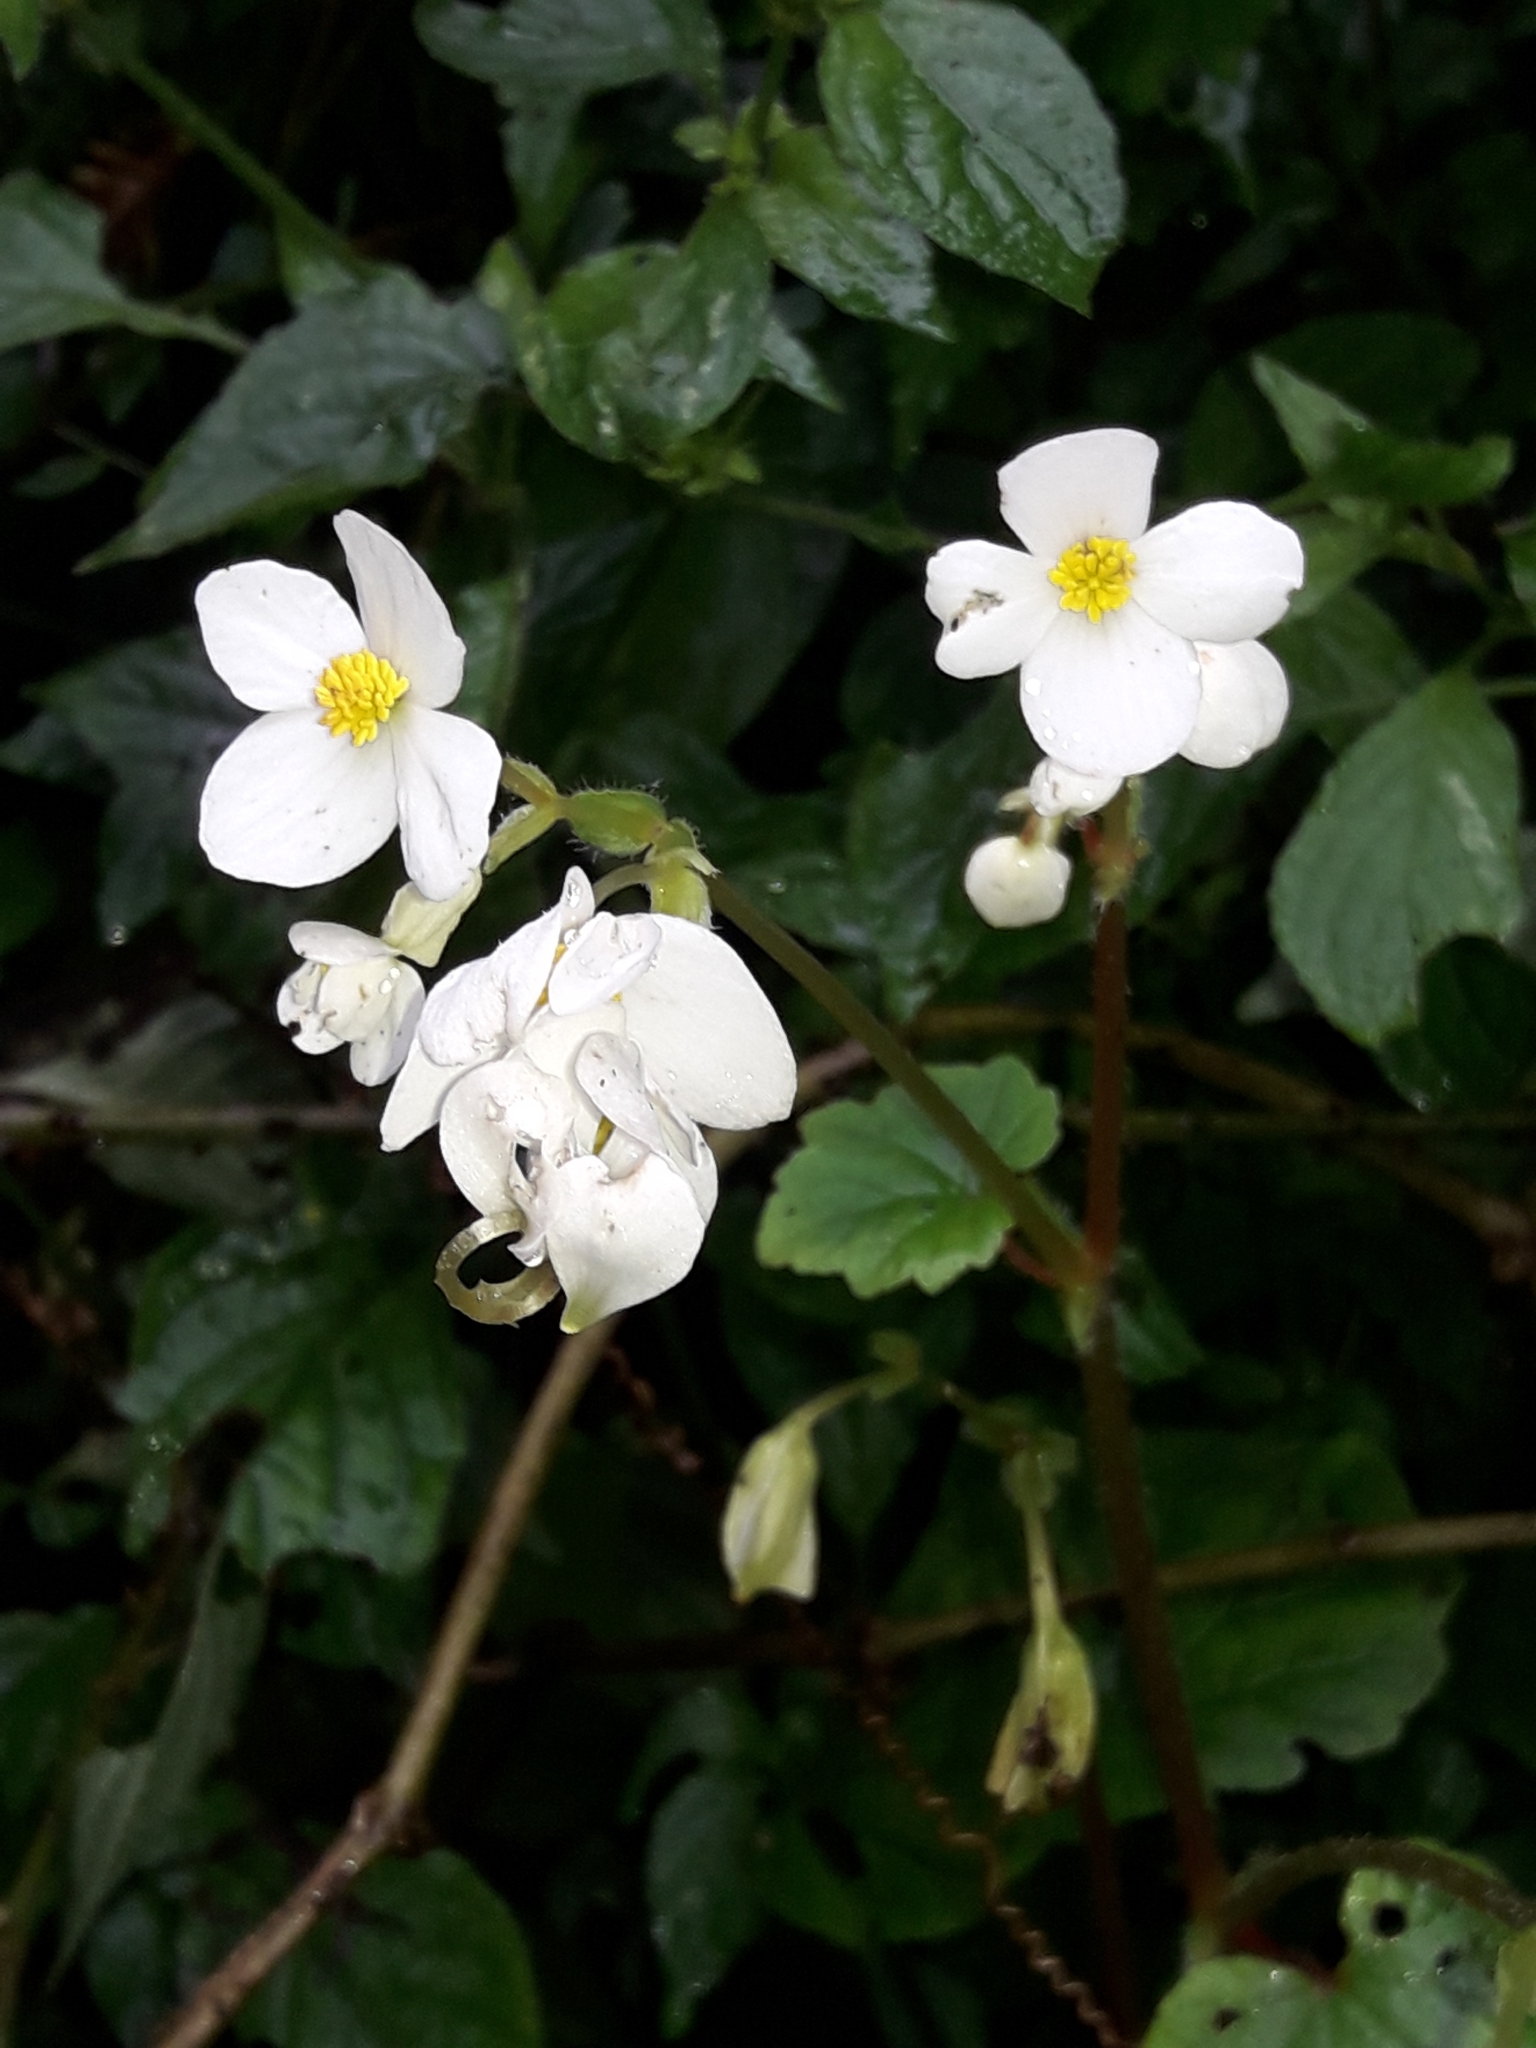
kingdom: Plantae
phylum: Tracheophyta
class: Magnoliopsida
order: Cucurbitales
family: Begoniaceae
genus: Begonia
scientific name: Begonia geranioides
